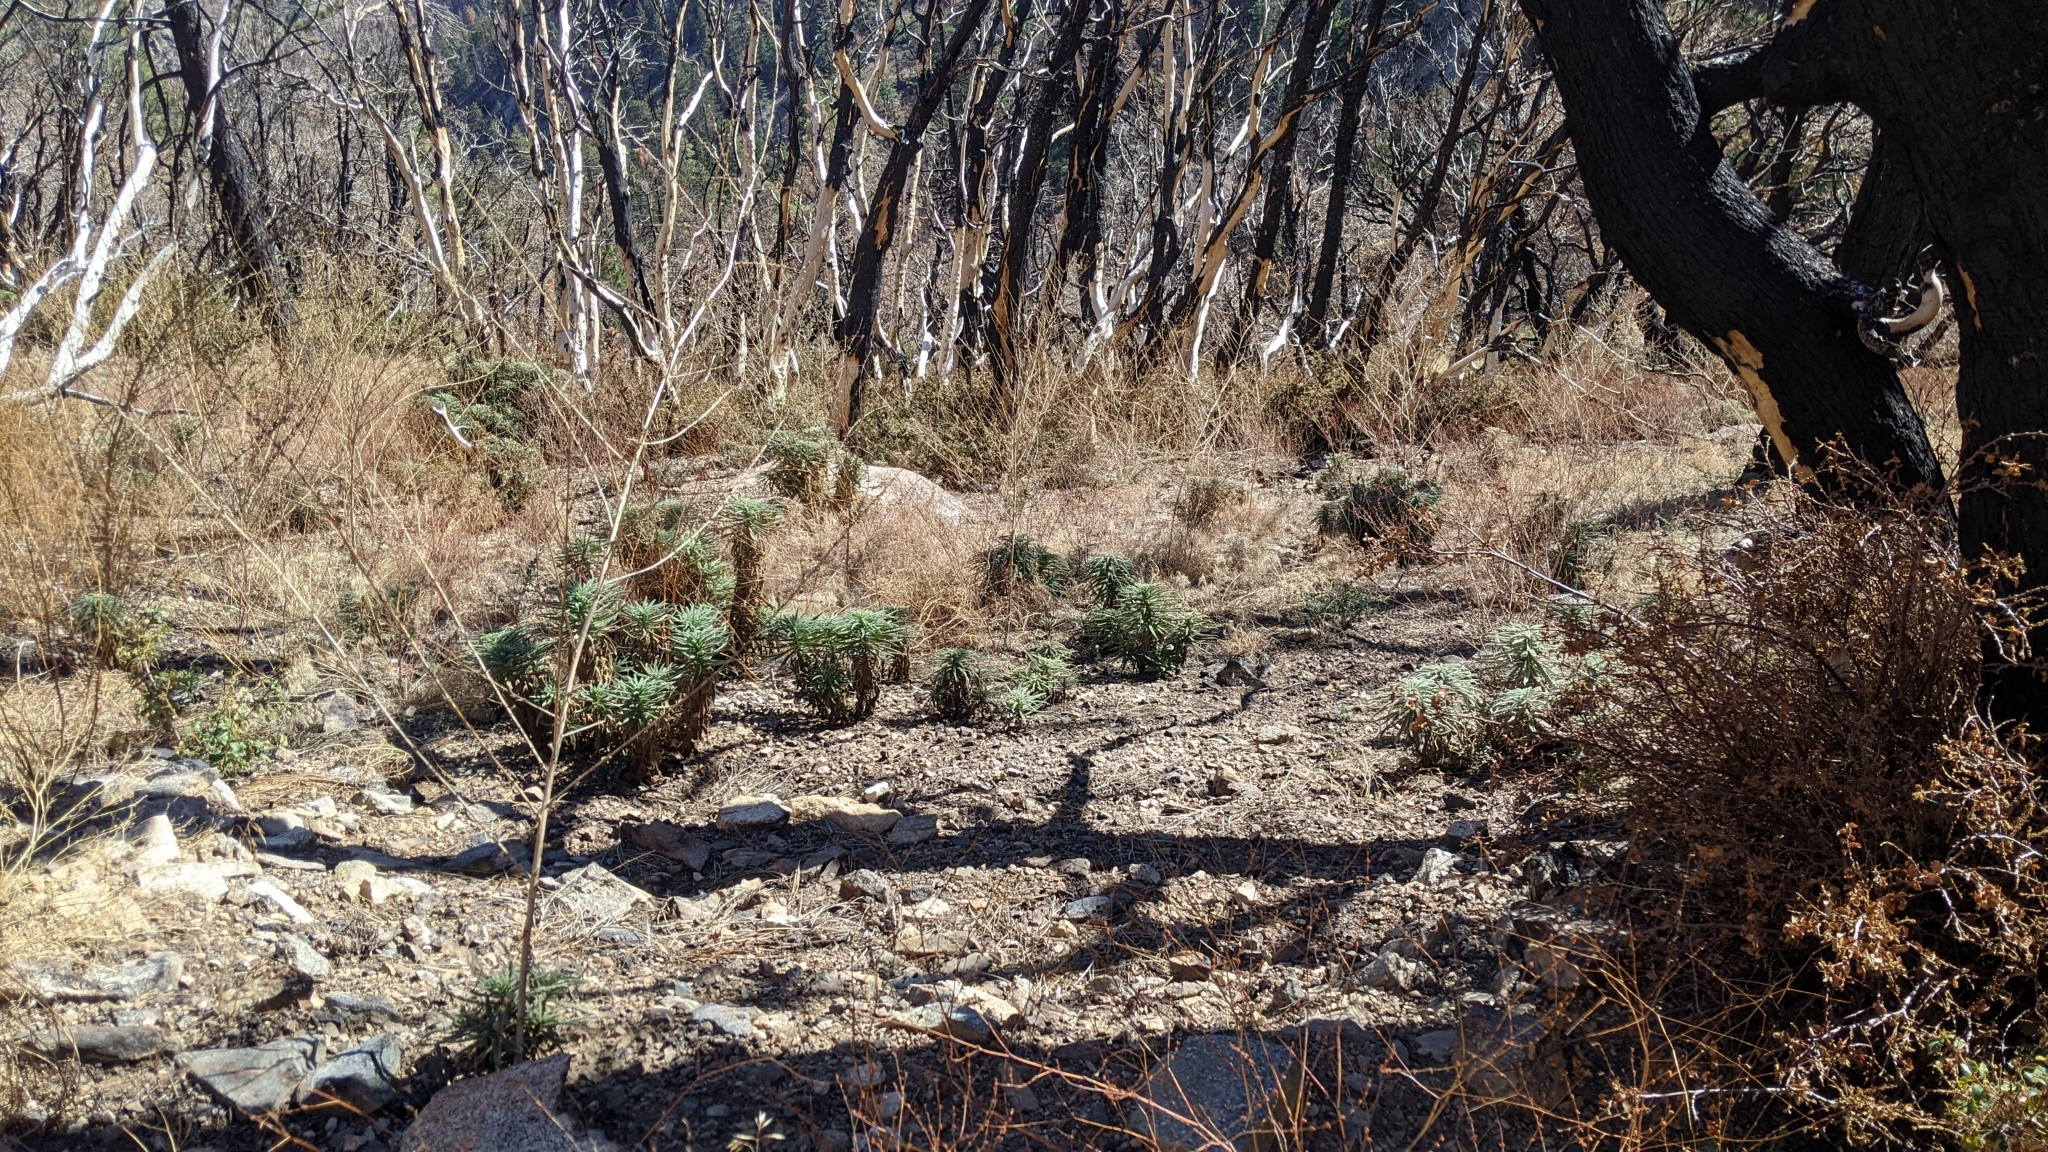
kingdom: Plantae
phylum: Tracheophyta
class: Magnoliopsida
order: Boraginales
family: Namaceae
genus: Turricula
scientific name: Turricula parryi
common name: Poodle-dog-bush
